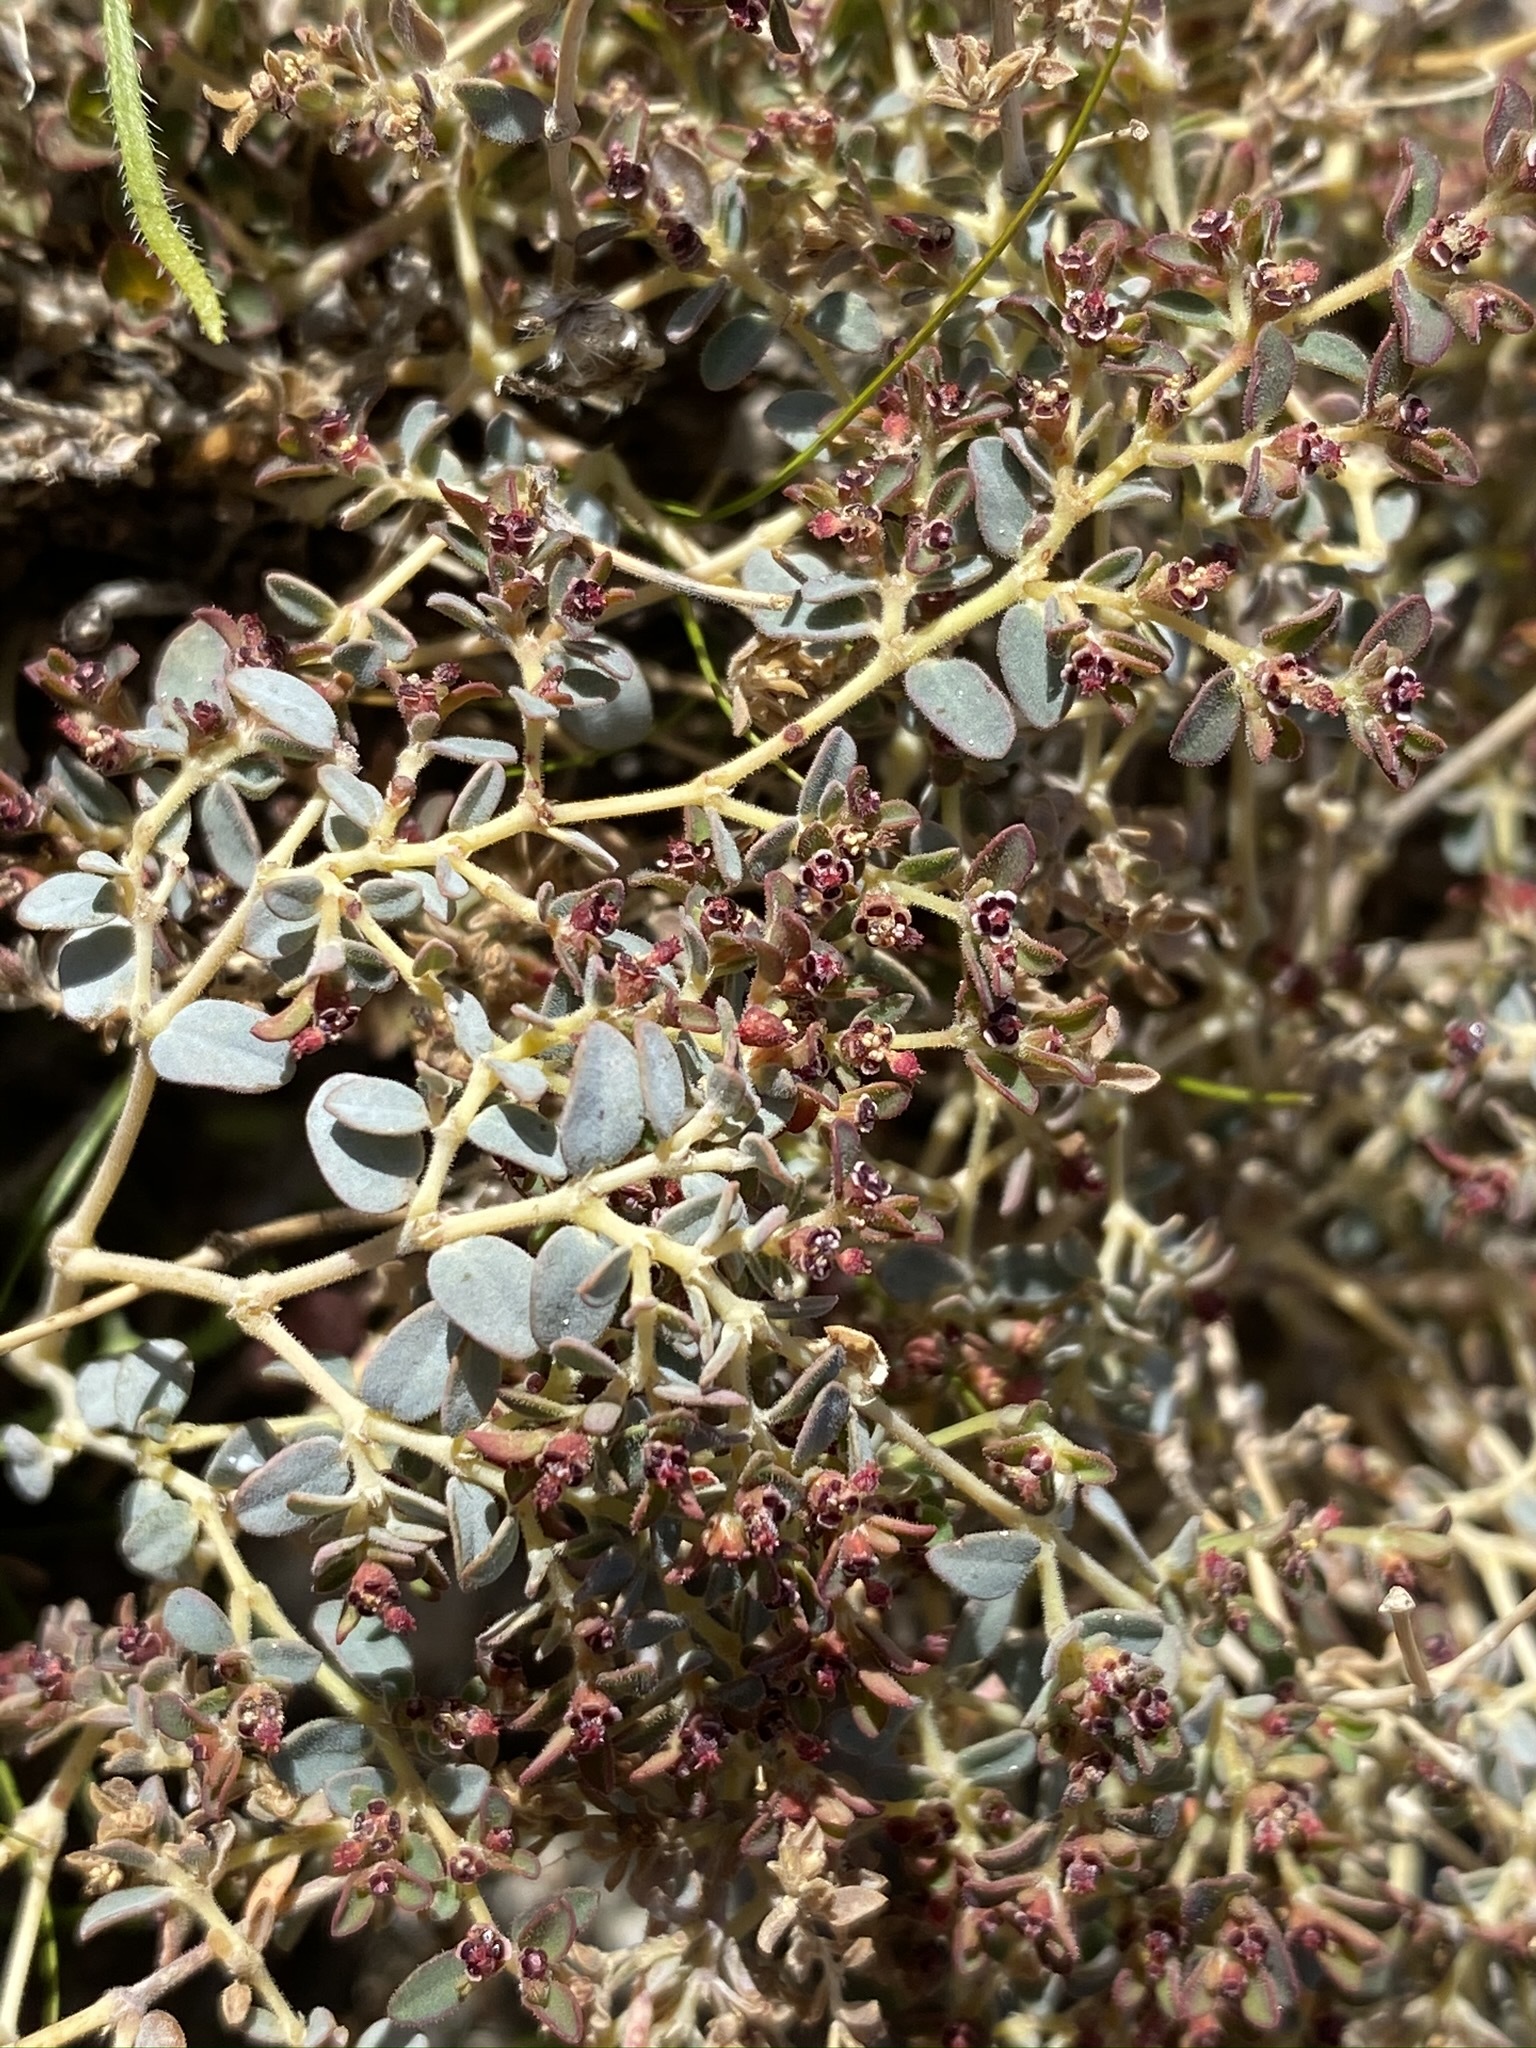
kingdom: Plantae
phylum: Tracheophyta
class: Magnoliopsida
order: Malpighiales
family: Euphorbiaceae
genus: Euphorbia
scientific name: Euphorbia polycarpa
